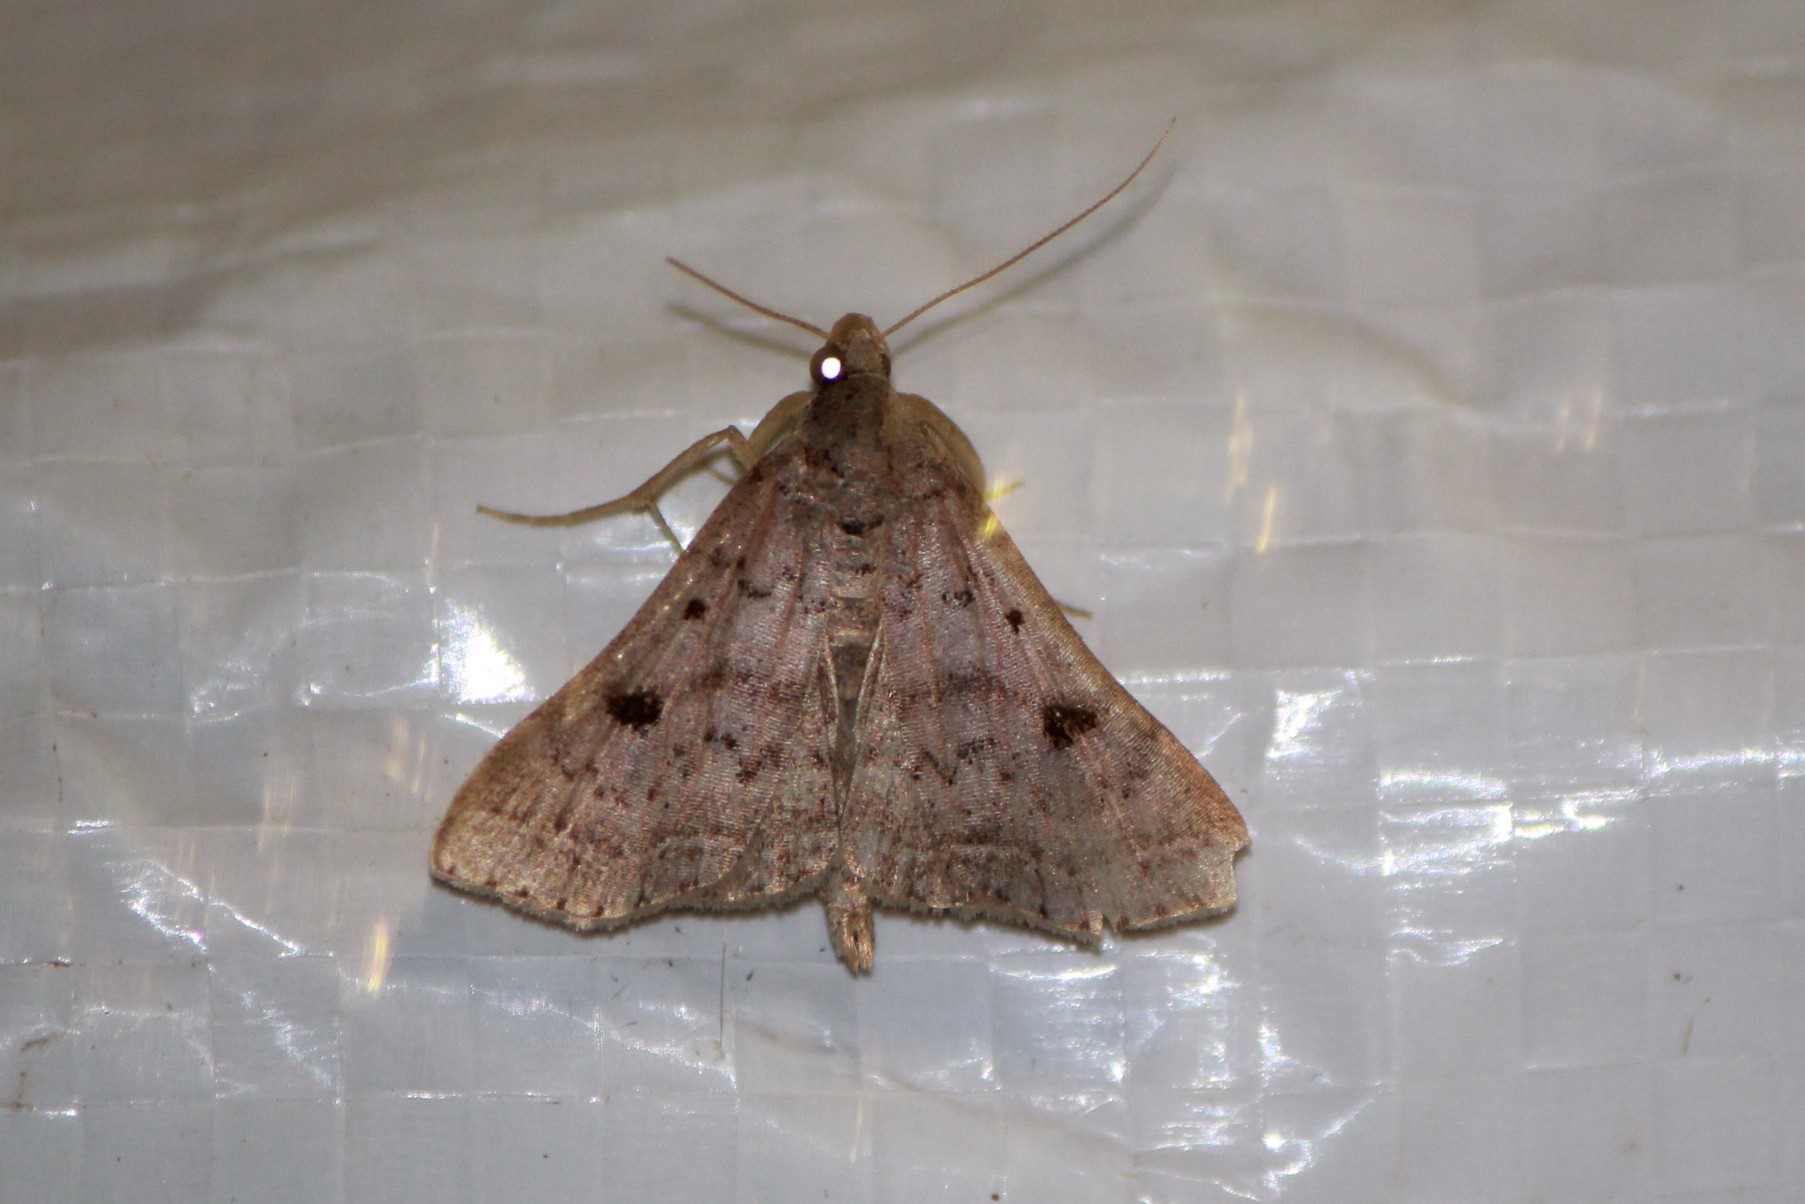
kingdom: Animalia
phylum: Arthropoda
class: Insecta
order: Lepidoptera
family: Erebidae
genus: Bleptina
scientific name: Bleptina caradrinalis
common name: Bent-winged owlet
